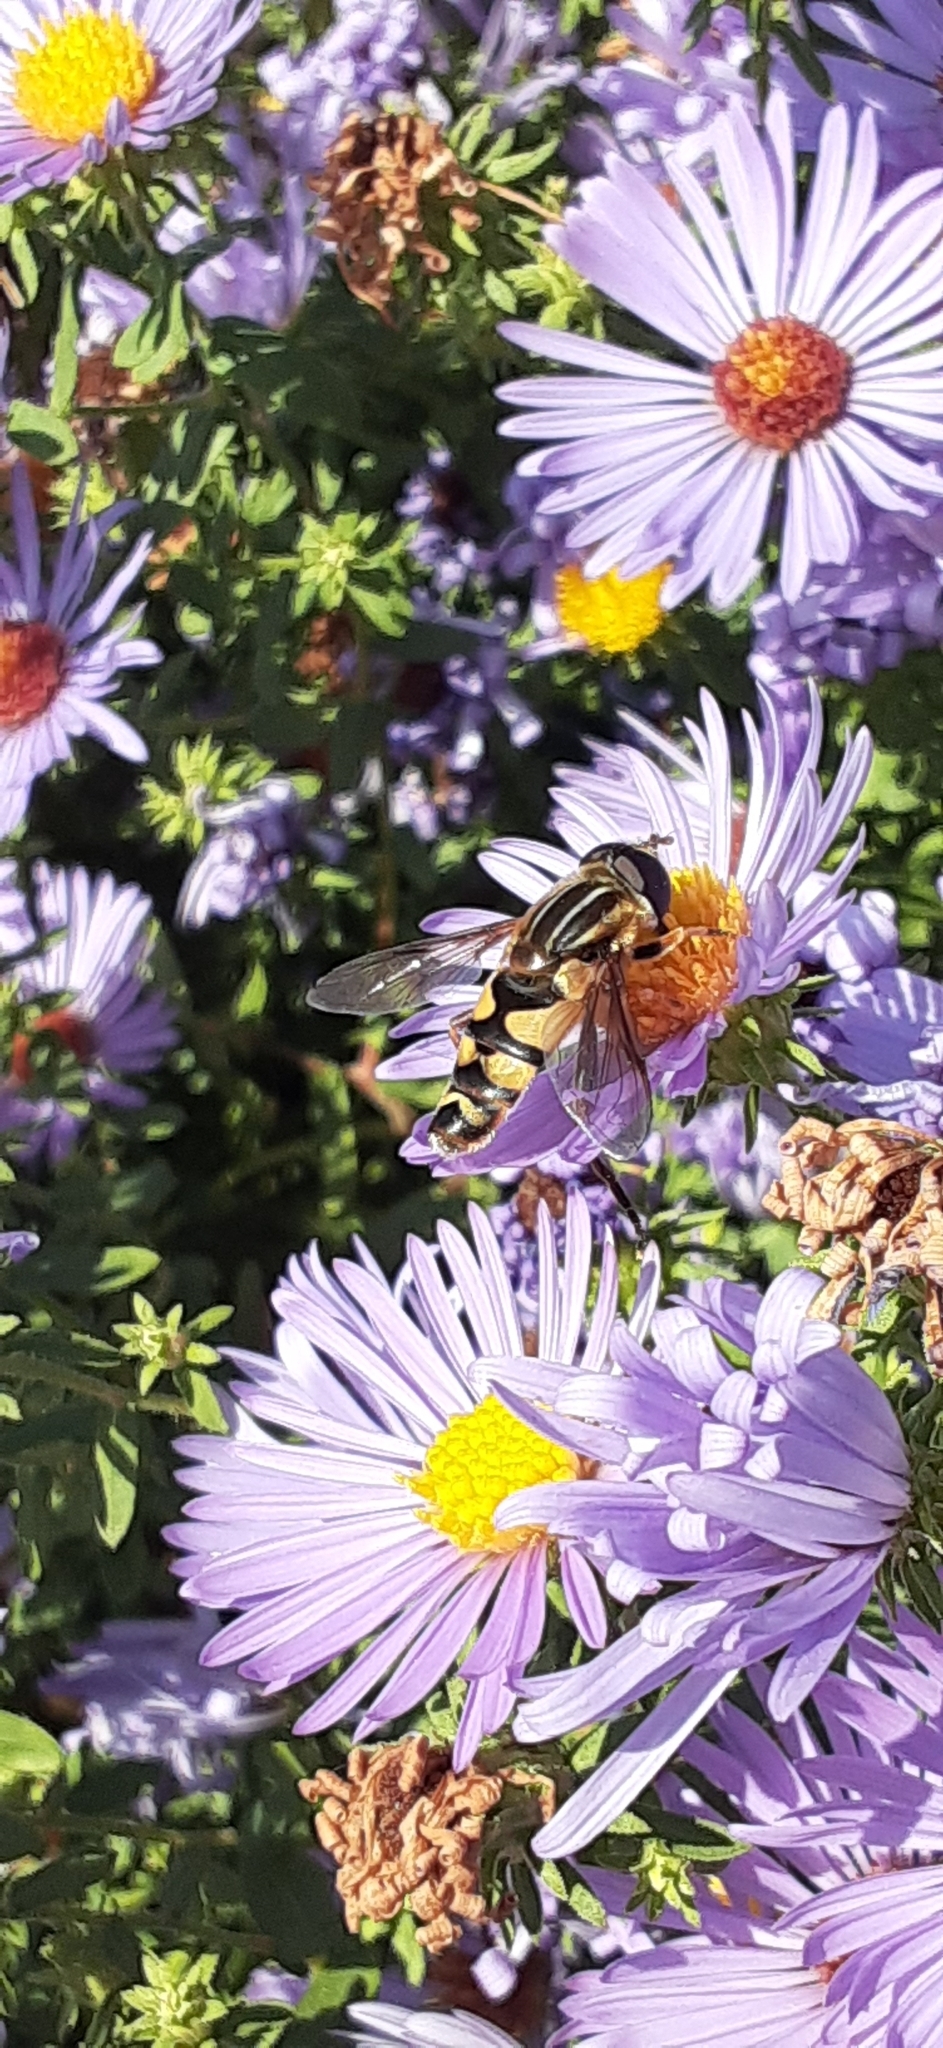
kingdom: Animalia
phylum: Arthropoda
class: Insecta
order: Diptera
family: Syrphidae
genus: Helophilus
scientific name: Helophilus fasciatus
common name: Narrow-headed marsh fly
